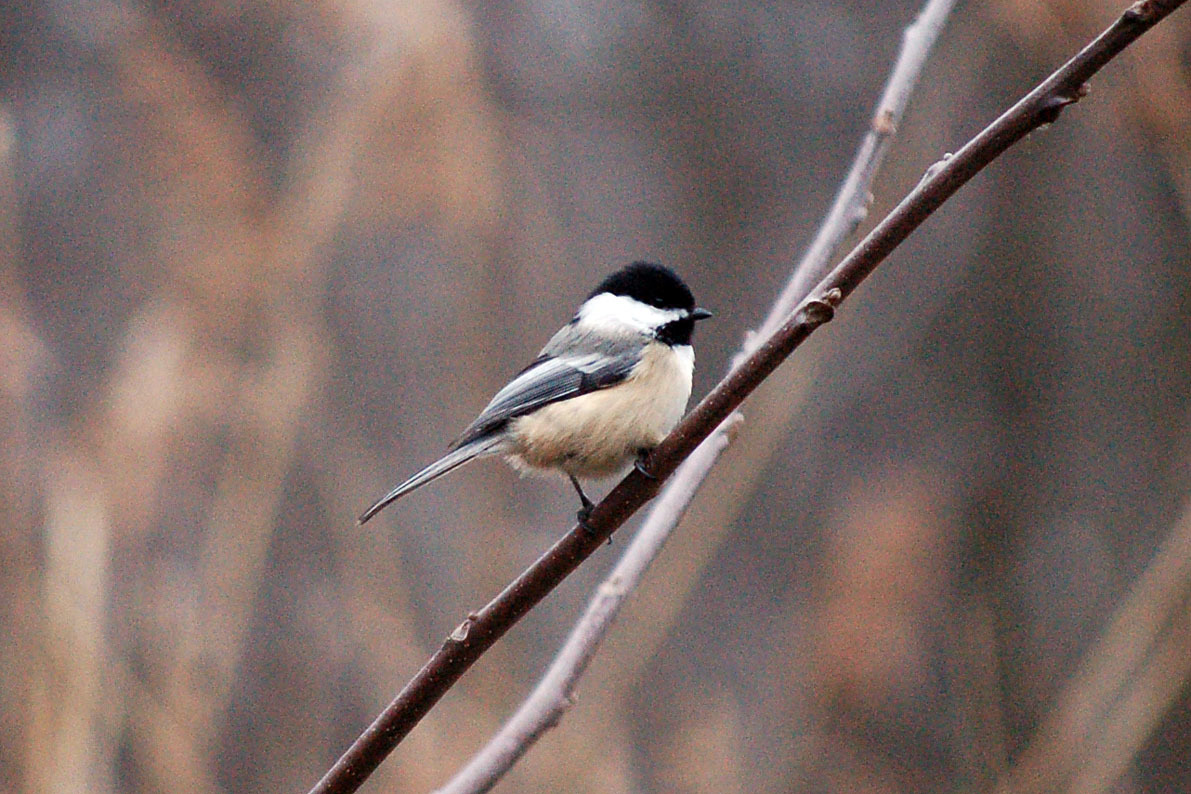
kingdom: Animalia
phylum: Chordata
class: Aves
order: Passeriformes
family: Paridae
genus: Poecile
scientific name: Poecile atricapillus
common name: Black-capped chickadee
